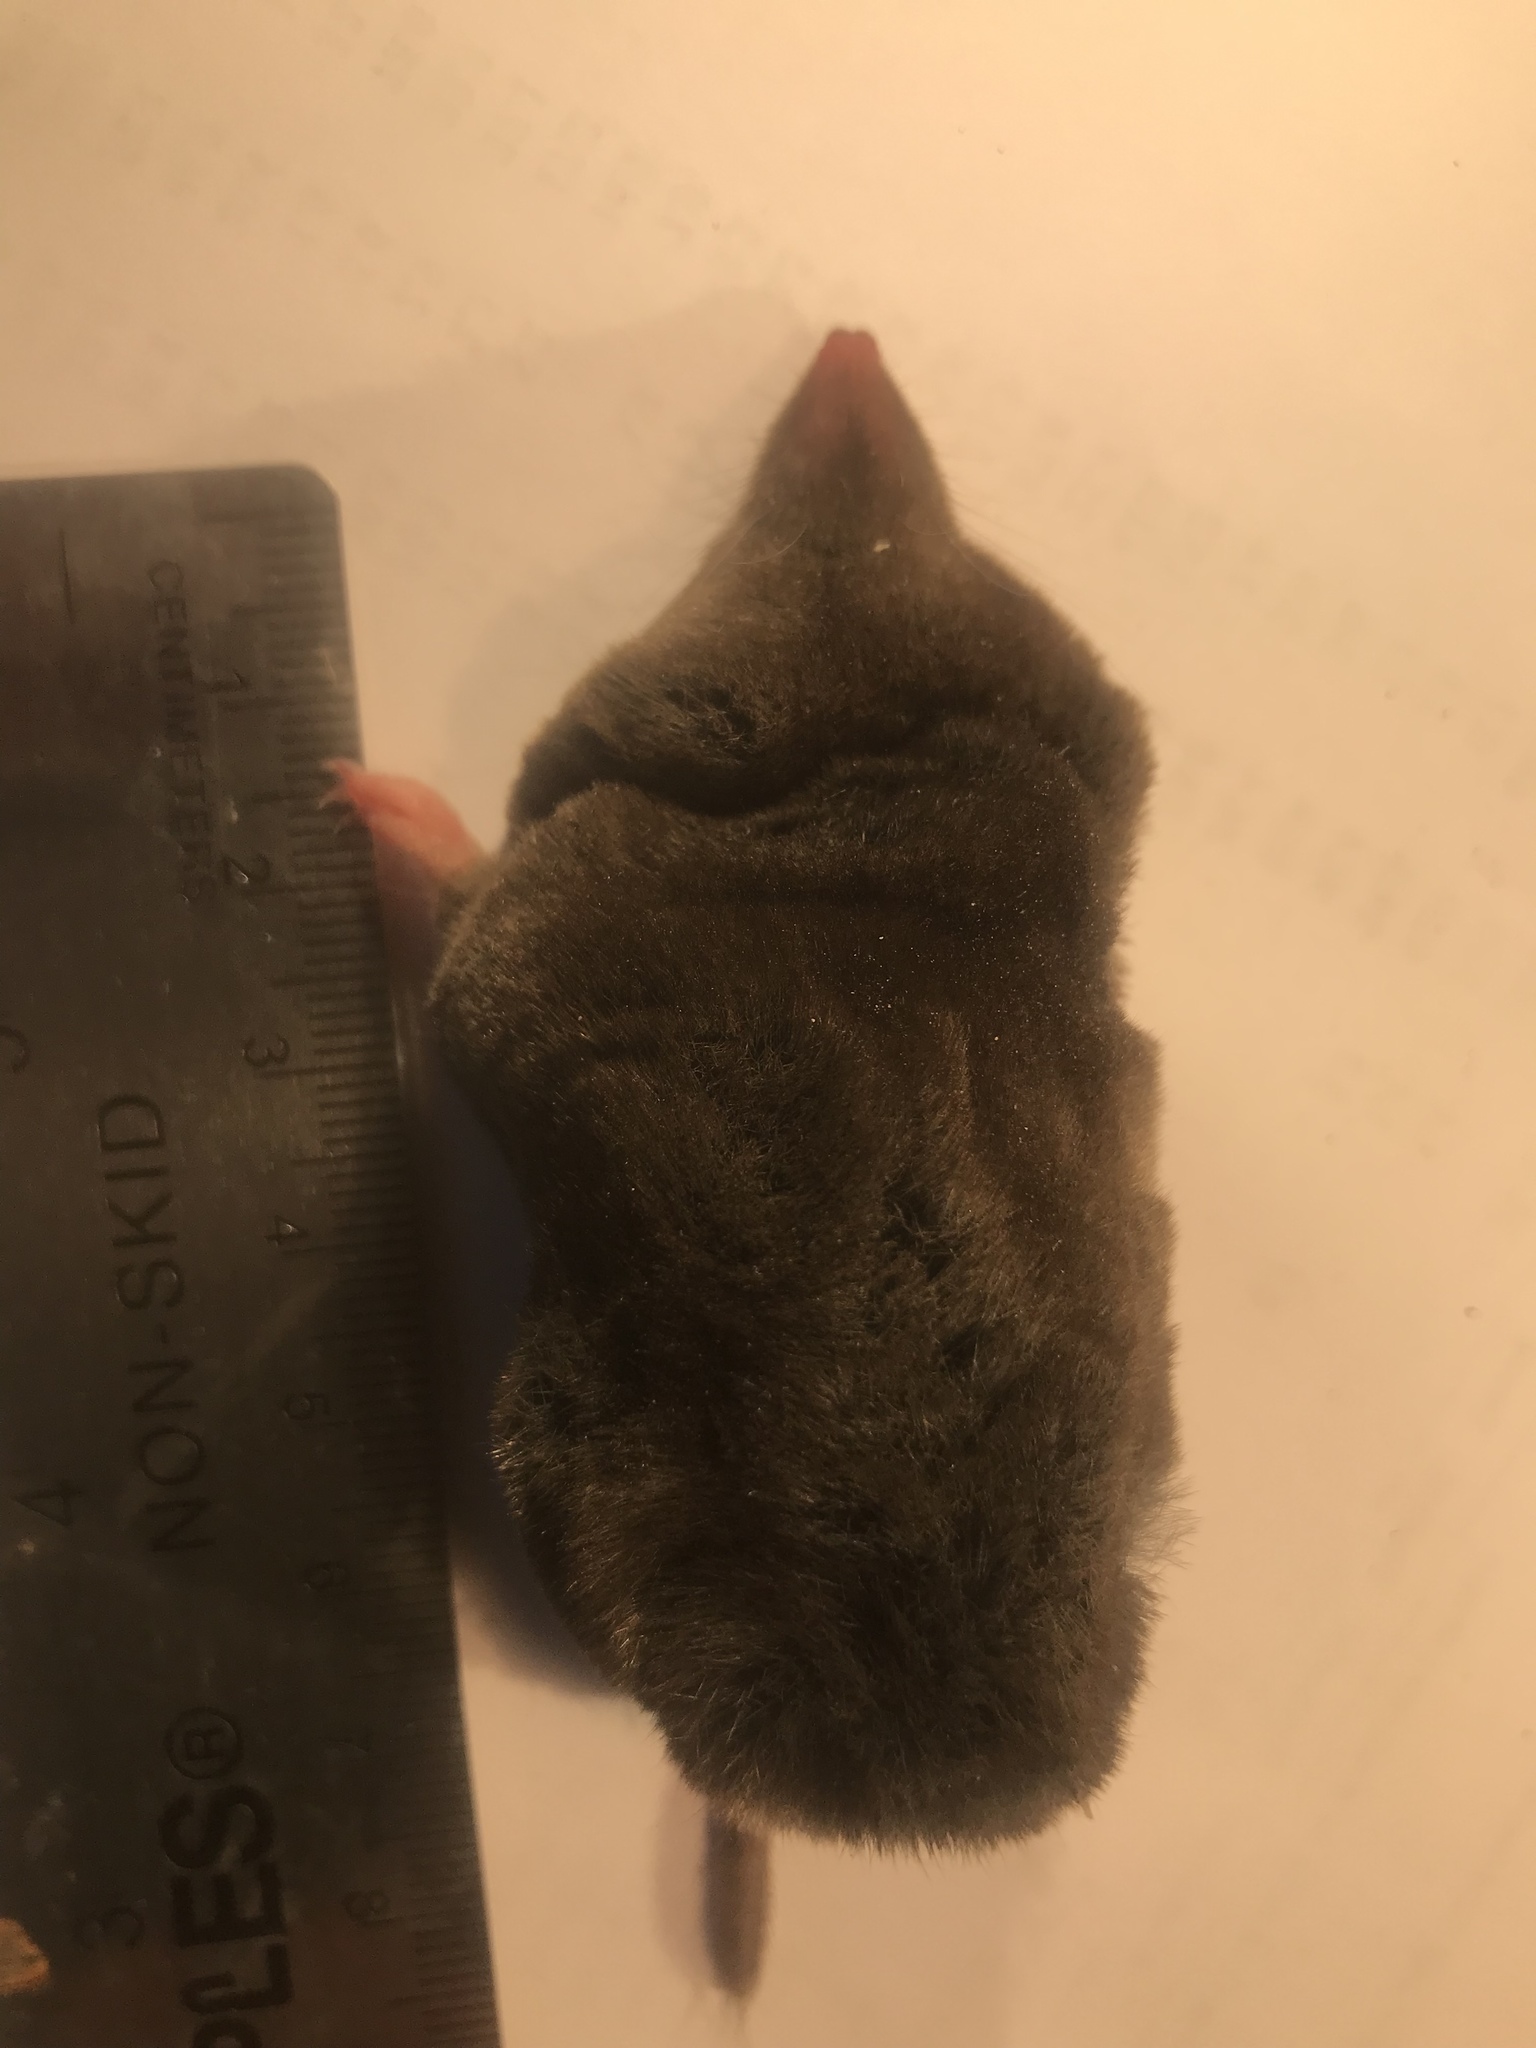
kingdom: Animalia
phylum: Chordata
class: Mammalia
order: Soricomorpha
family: Soricidae
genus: Blarina
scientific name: Blarina brevicauda
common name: Northern short-tailed shrew
